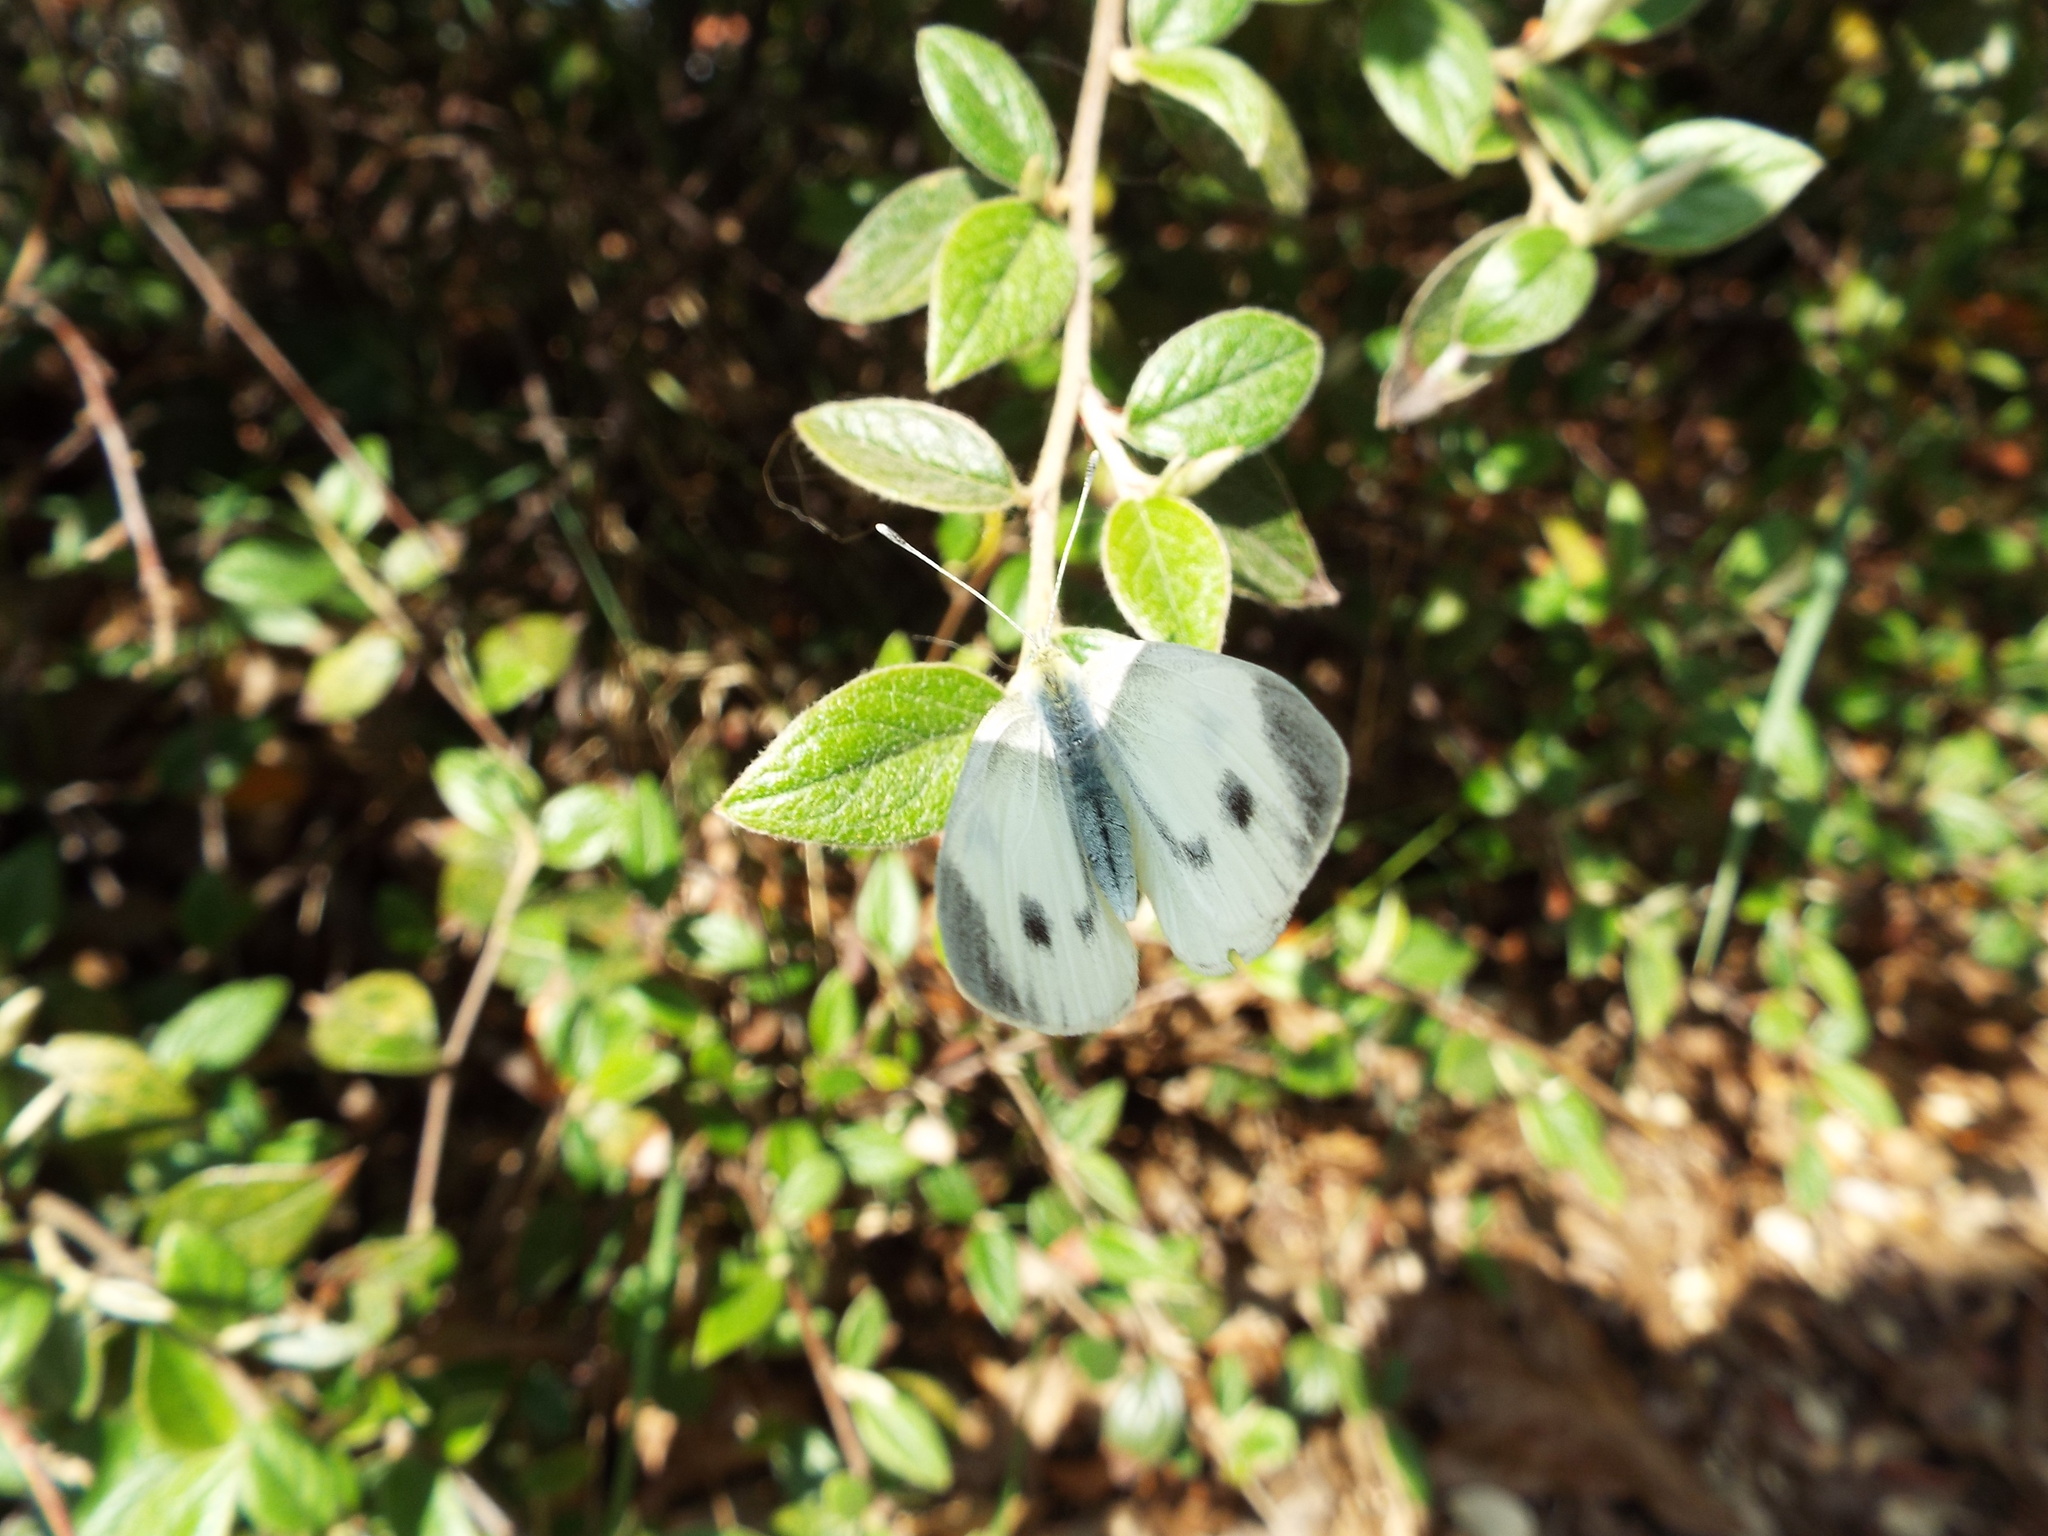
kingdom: Animalia
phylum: Arthropoda
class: Insecta
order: Lepidoptera
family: Pieridae
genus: Pieris
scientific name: Pieris mannii
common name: Southern small white
